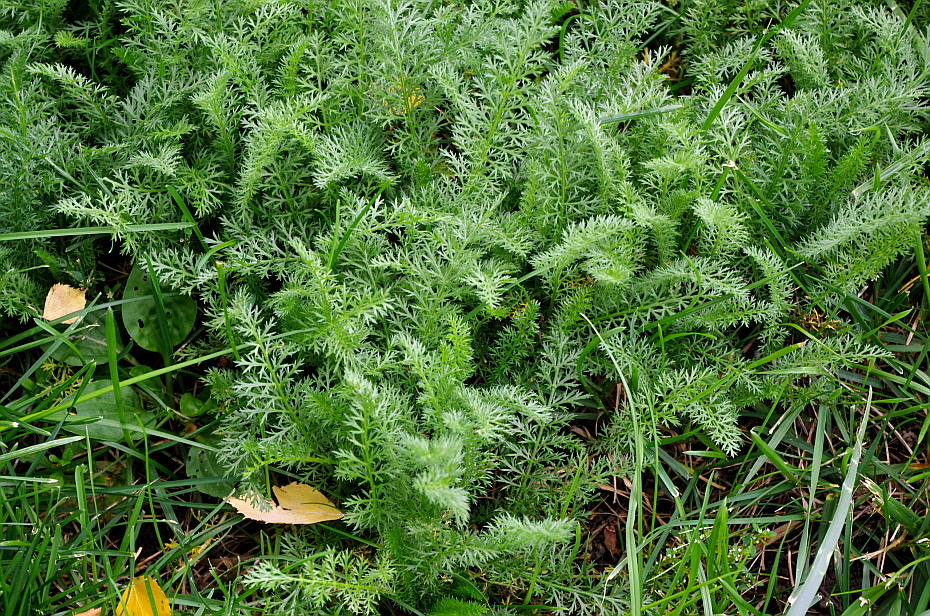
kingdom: Plantae
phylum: Tracheophyta
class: Magnoliopsida
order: Asterales
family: Asteraceae
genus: Achillea
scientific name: Achillea millefolium
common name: Yarrow
